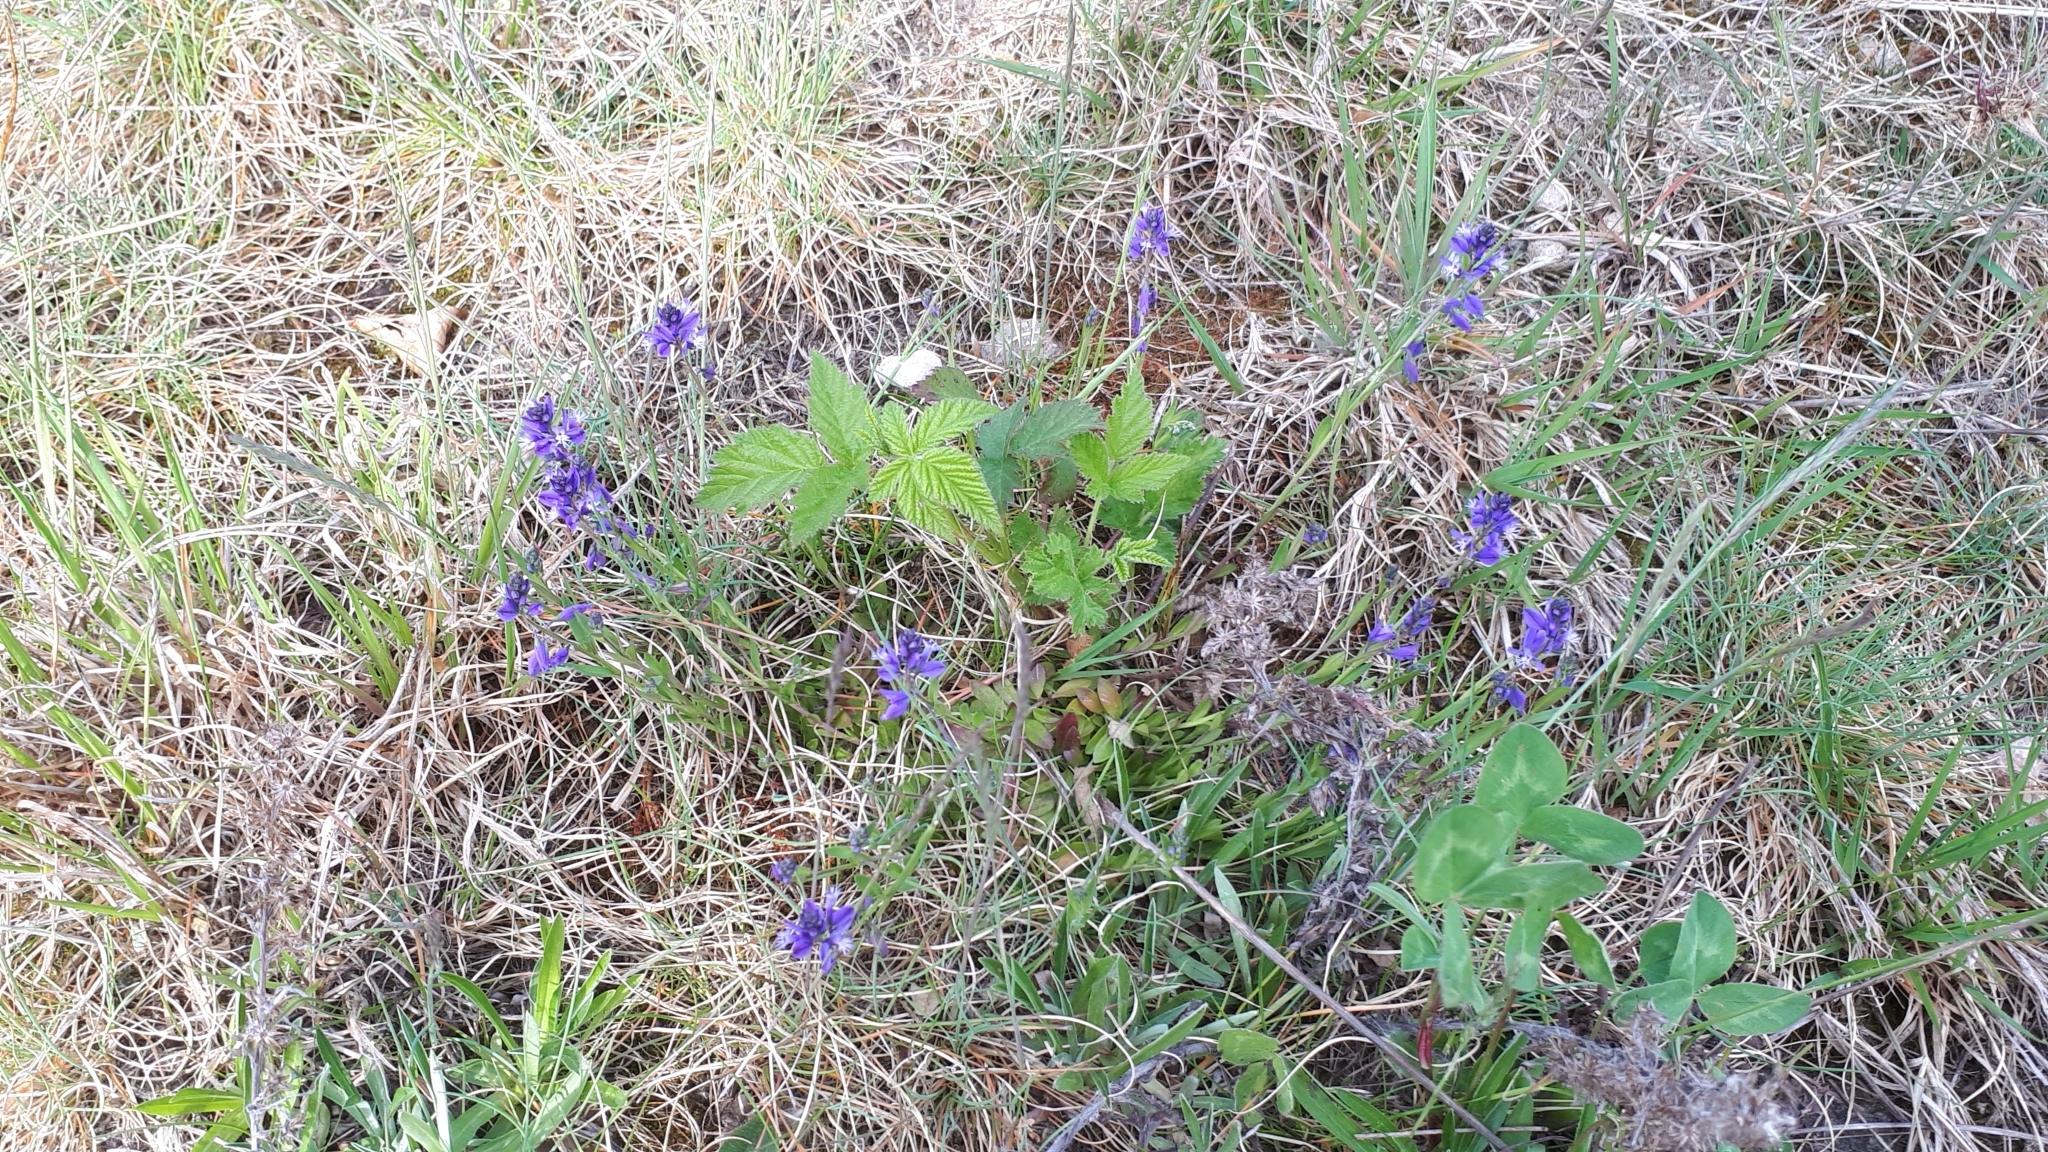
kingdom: Plantae
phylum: Tracheophyta
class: Magnoliopsida
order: Fabales
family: Polygalaceae
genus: Polygala
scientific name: Polygala vulgaris
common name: Common milkwort
